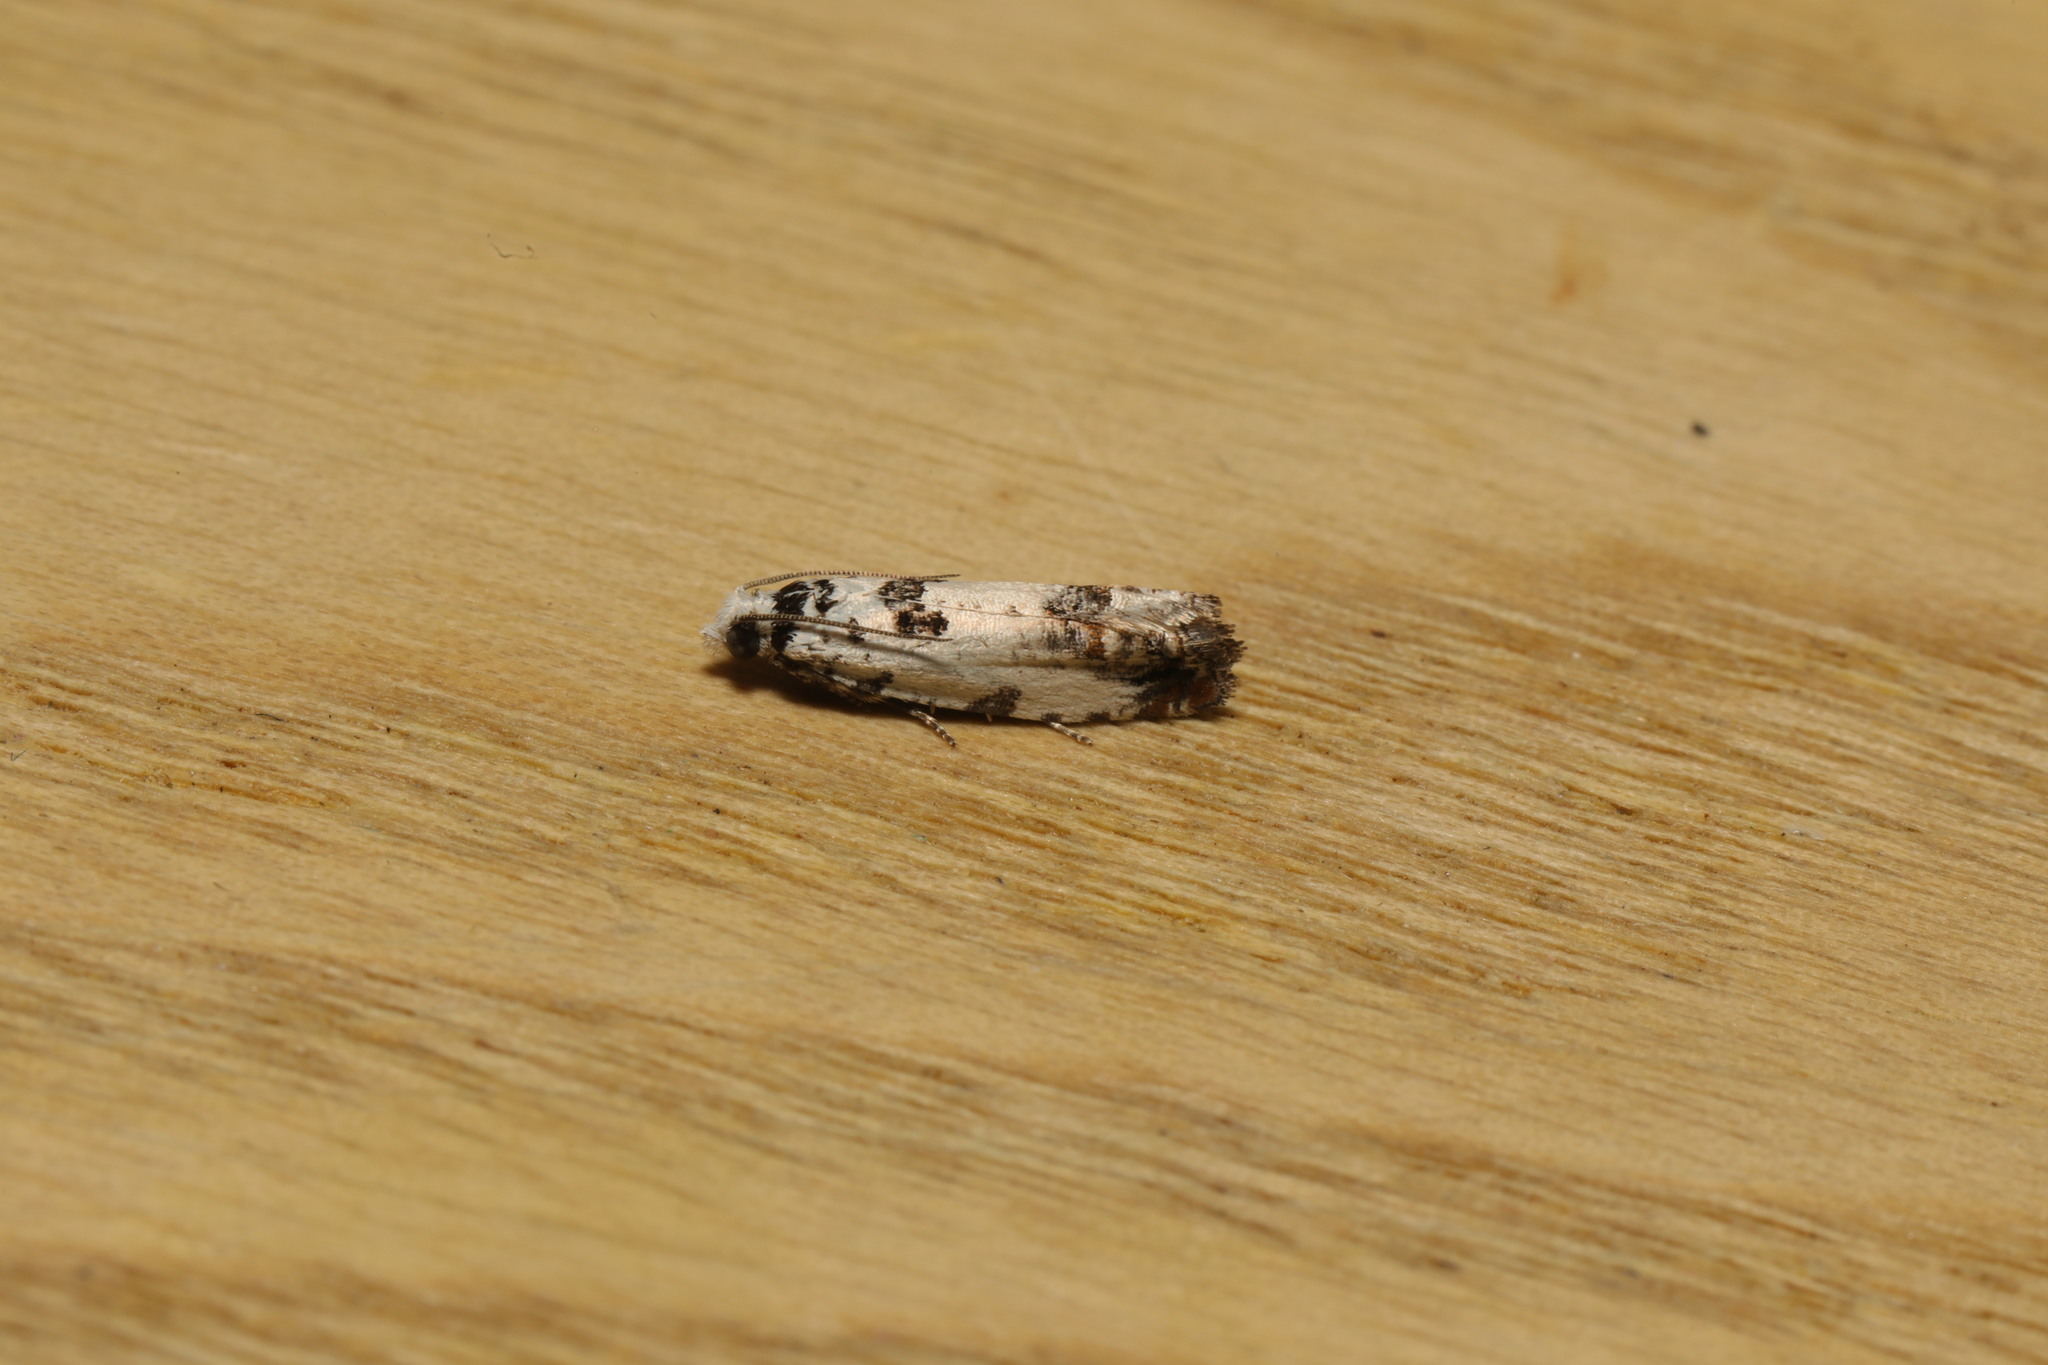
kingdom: Animalia
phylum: Arthropoda
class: Insecta
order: Lepidoptera
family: Tortricidae
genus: Eucosma
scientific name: Eucosma campoliliana
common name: Marbled bell
